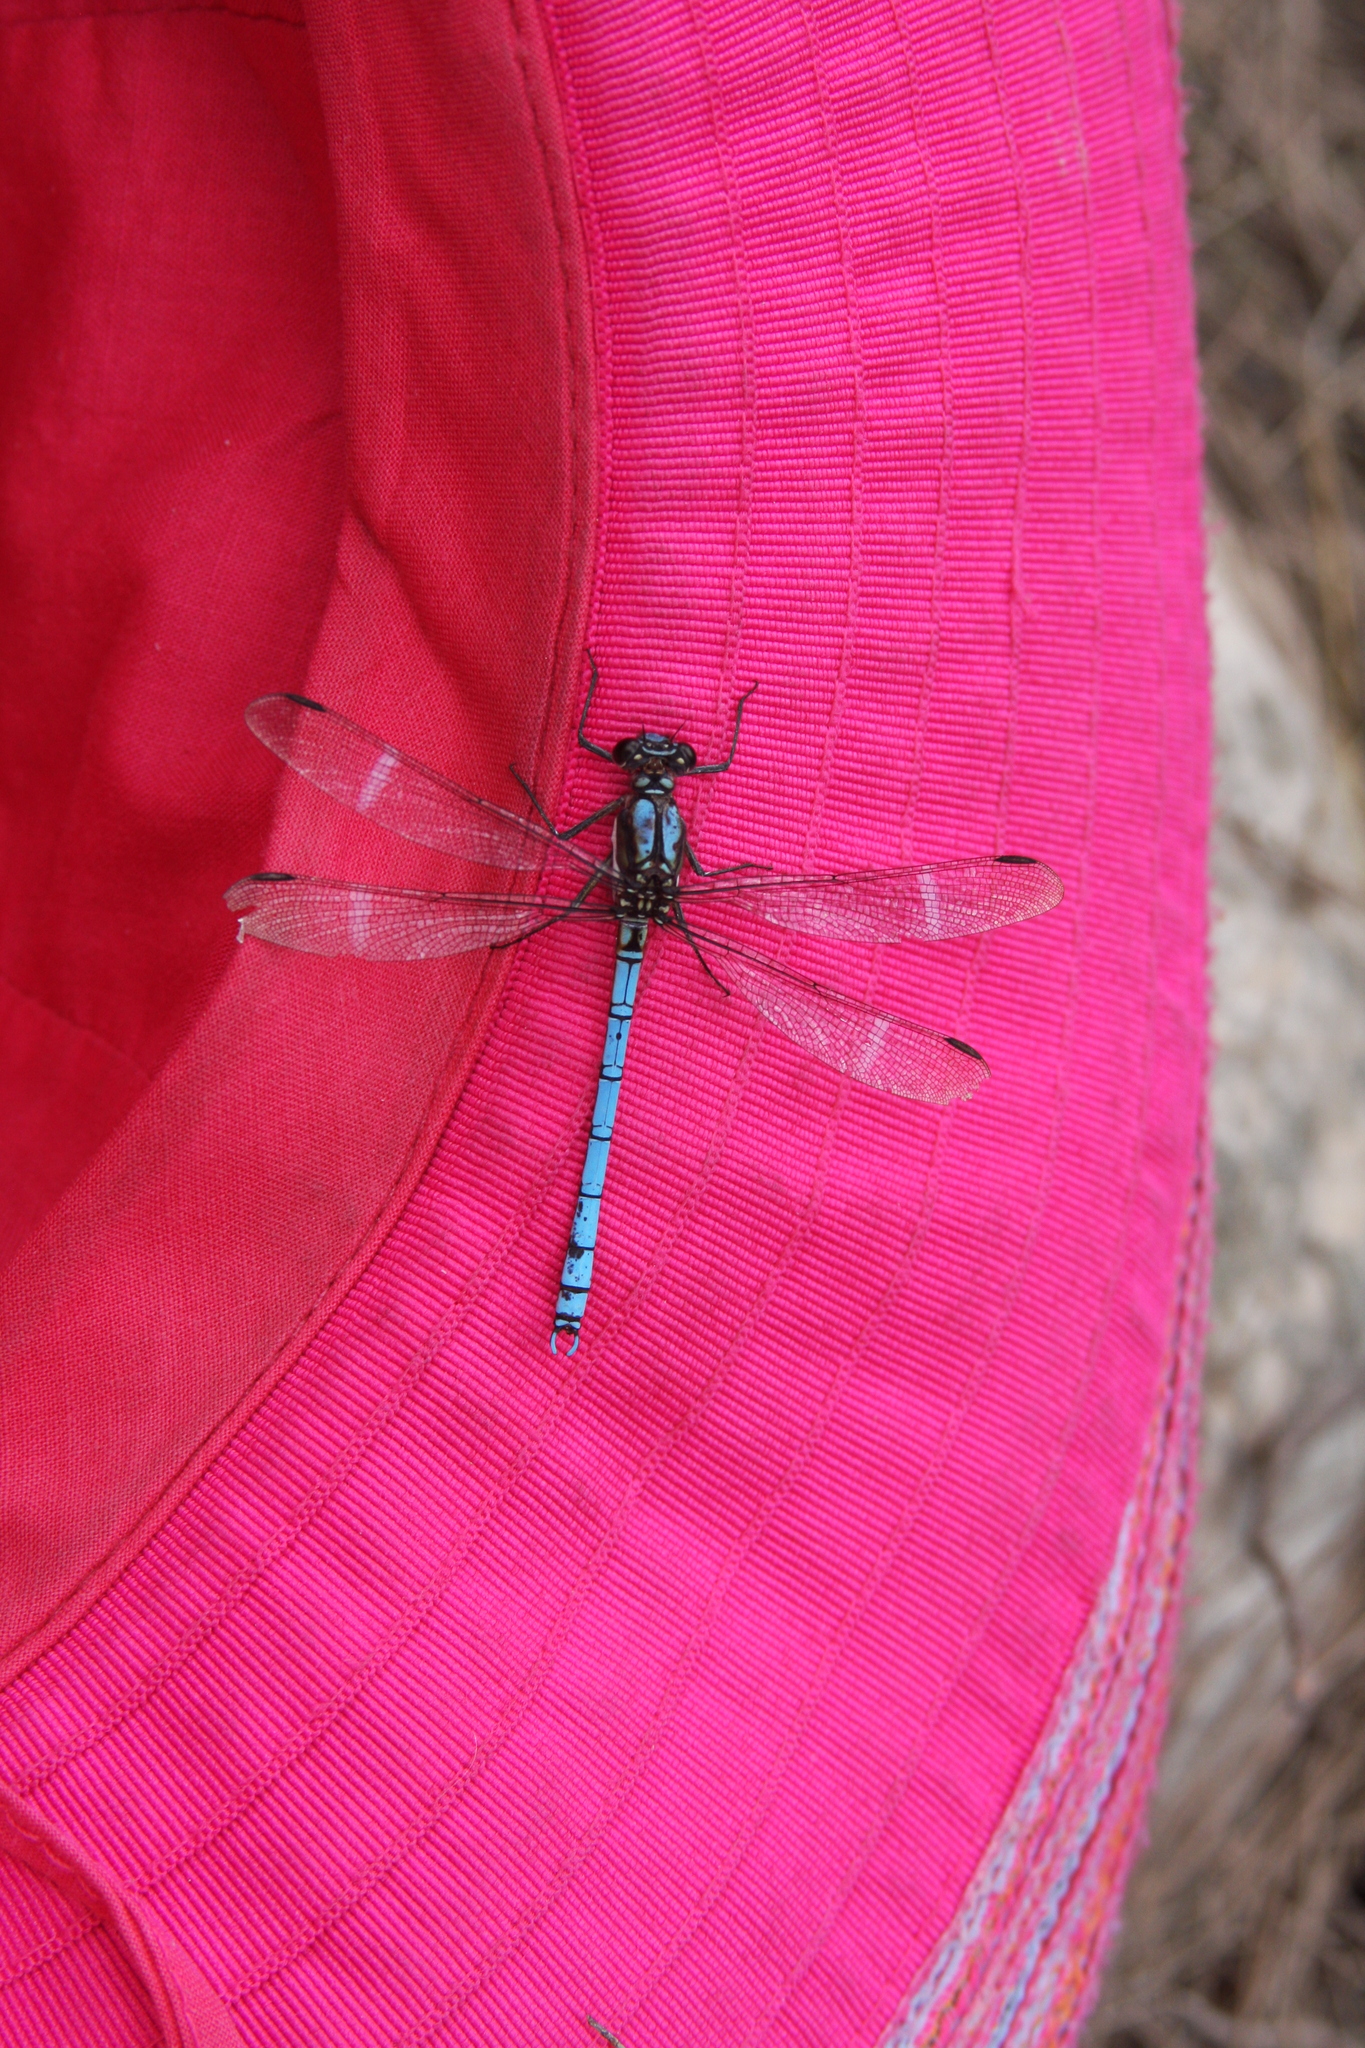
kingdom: Animalia
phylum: Arthropoda
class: Insecta
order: Odonata
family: Lestoideidae
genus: Diphlebia
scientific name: Diphlebia lestoides
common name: Whitewater rockmaster
